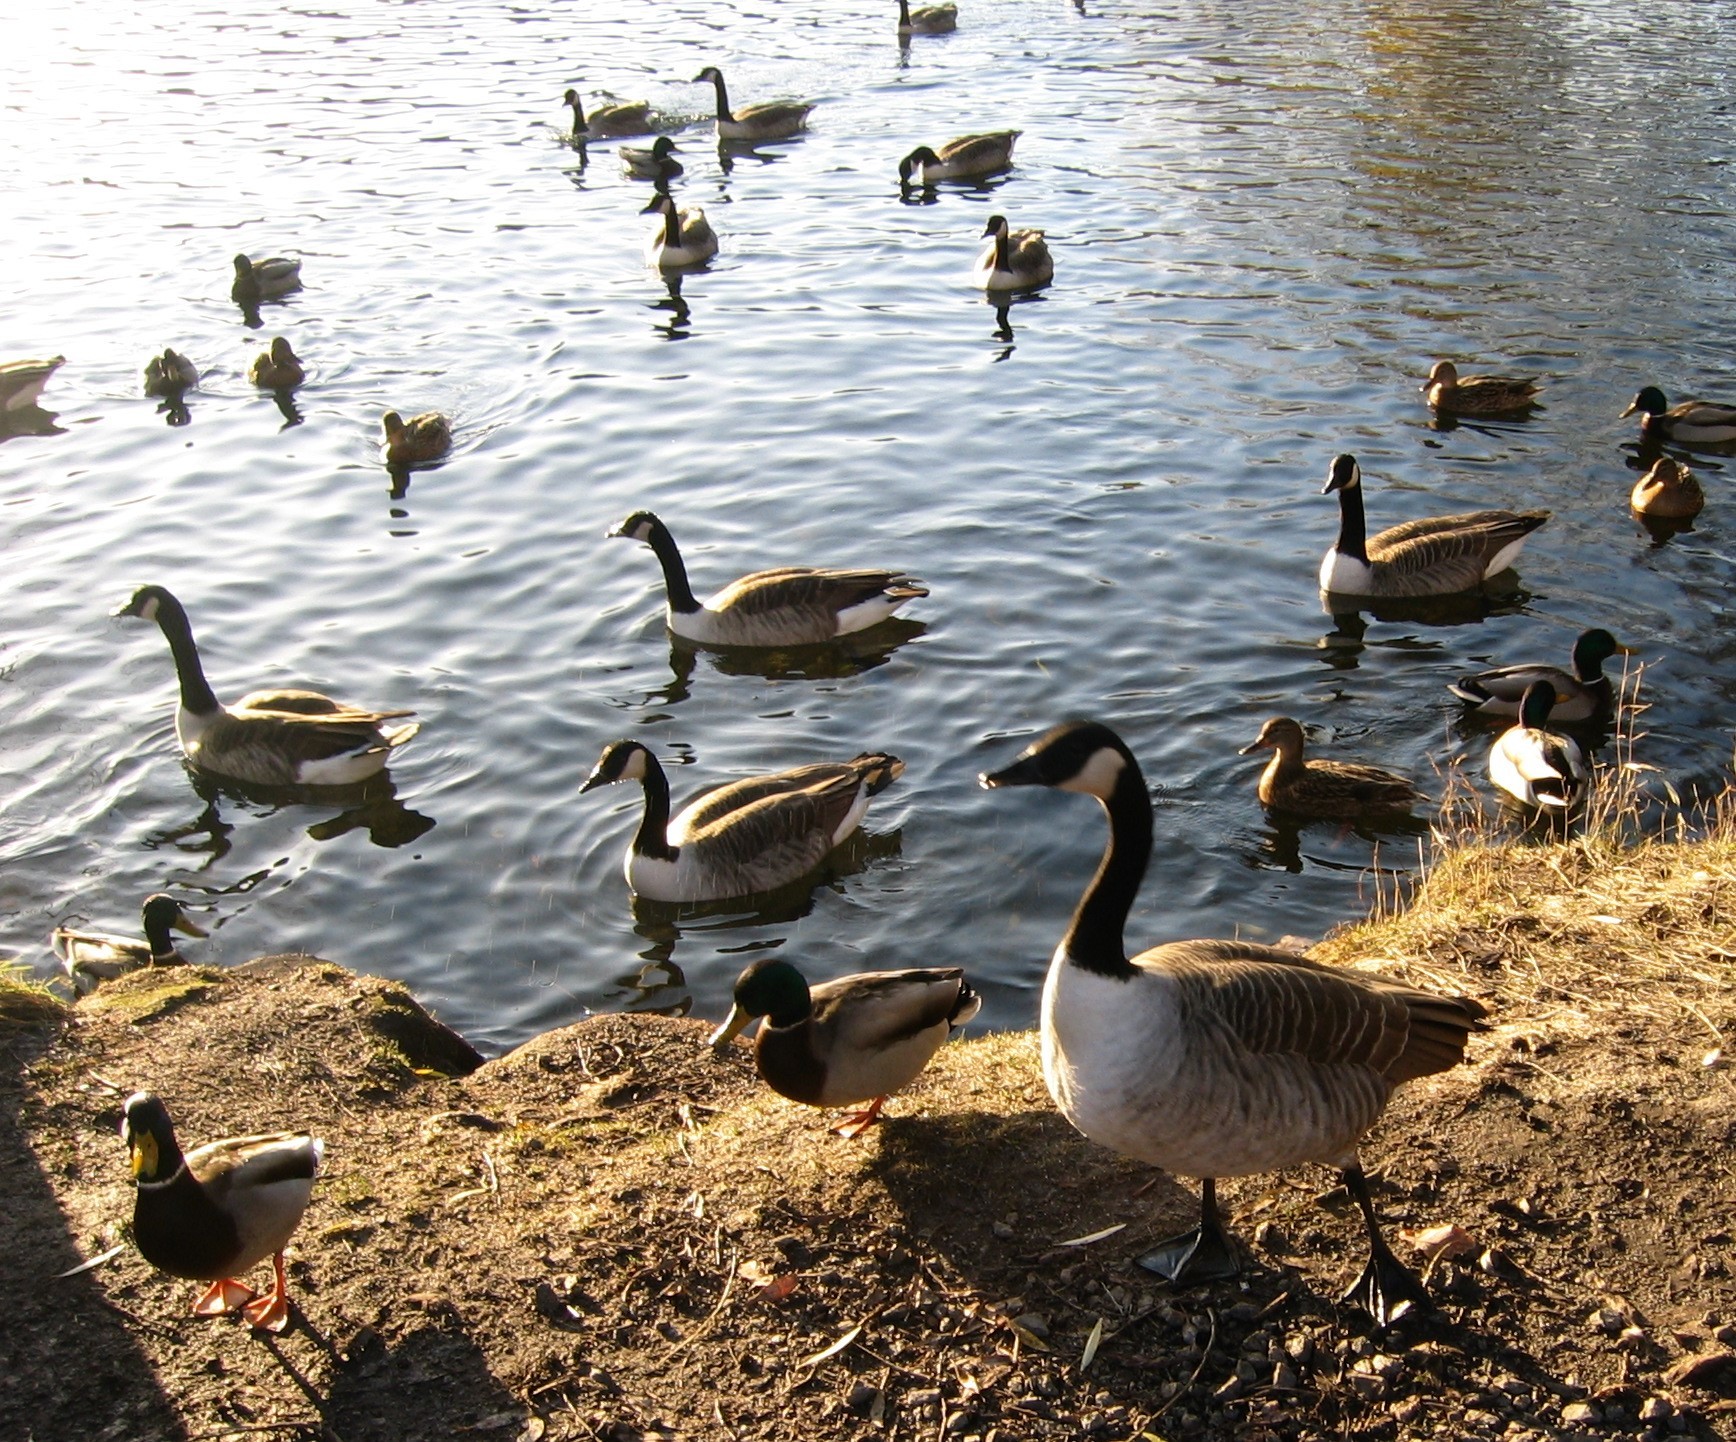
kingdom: Animalia
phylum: Chordata
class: Aves
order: Anseriformes
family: Anatidae
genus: Branta
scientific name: Branta canadensis
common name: Canada goose
